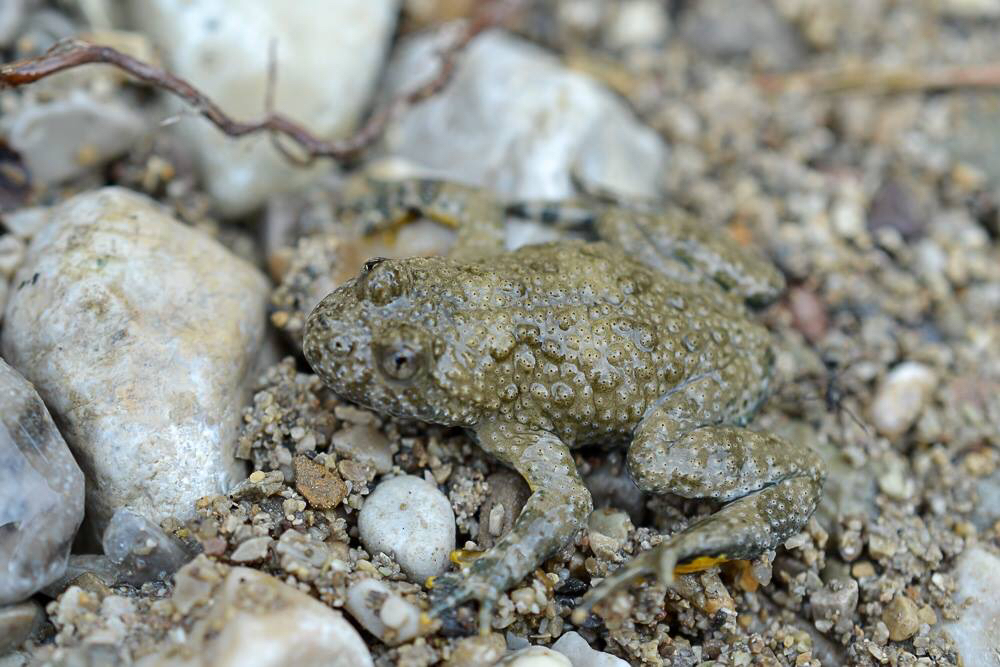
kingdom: Animalia
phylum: Chordata
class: Amphibia
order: Anura
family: Bombinatoridae
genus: Bombina
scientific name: Bombina variegata
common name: Yellow-bellied toad
